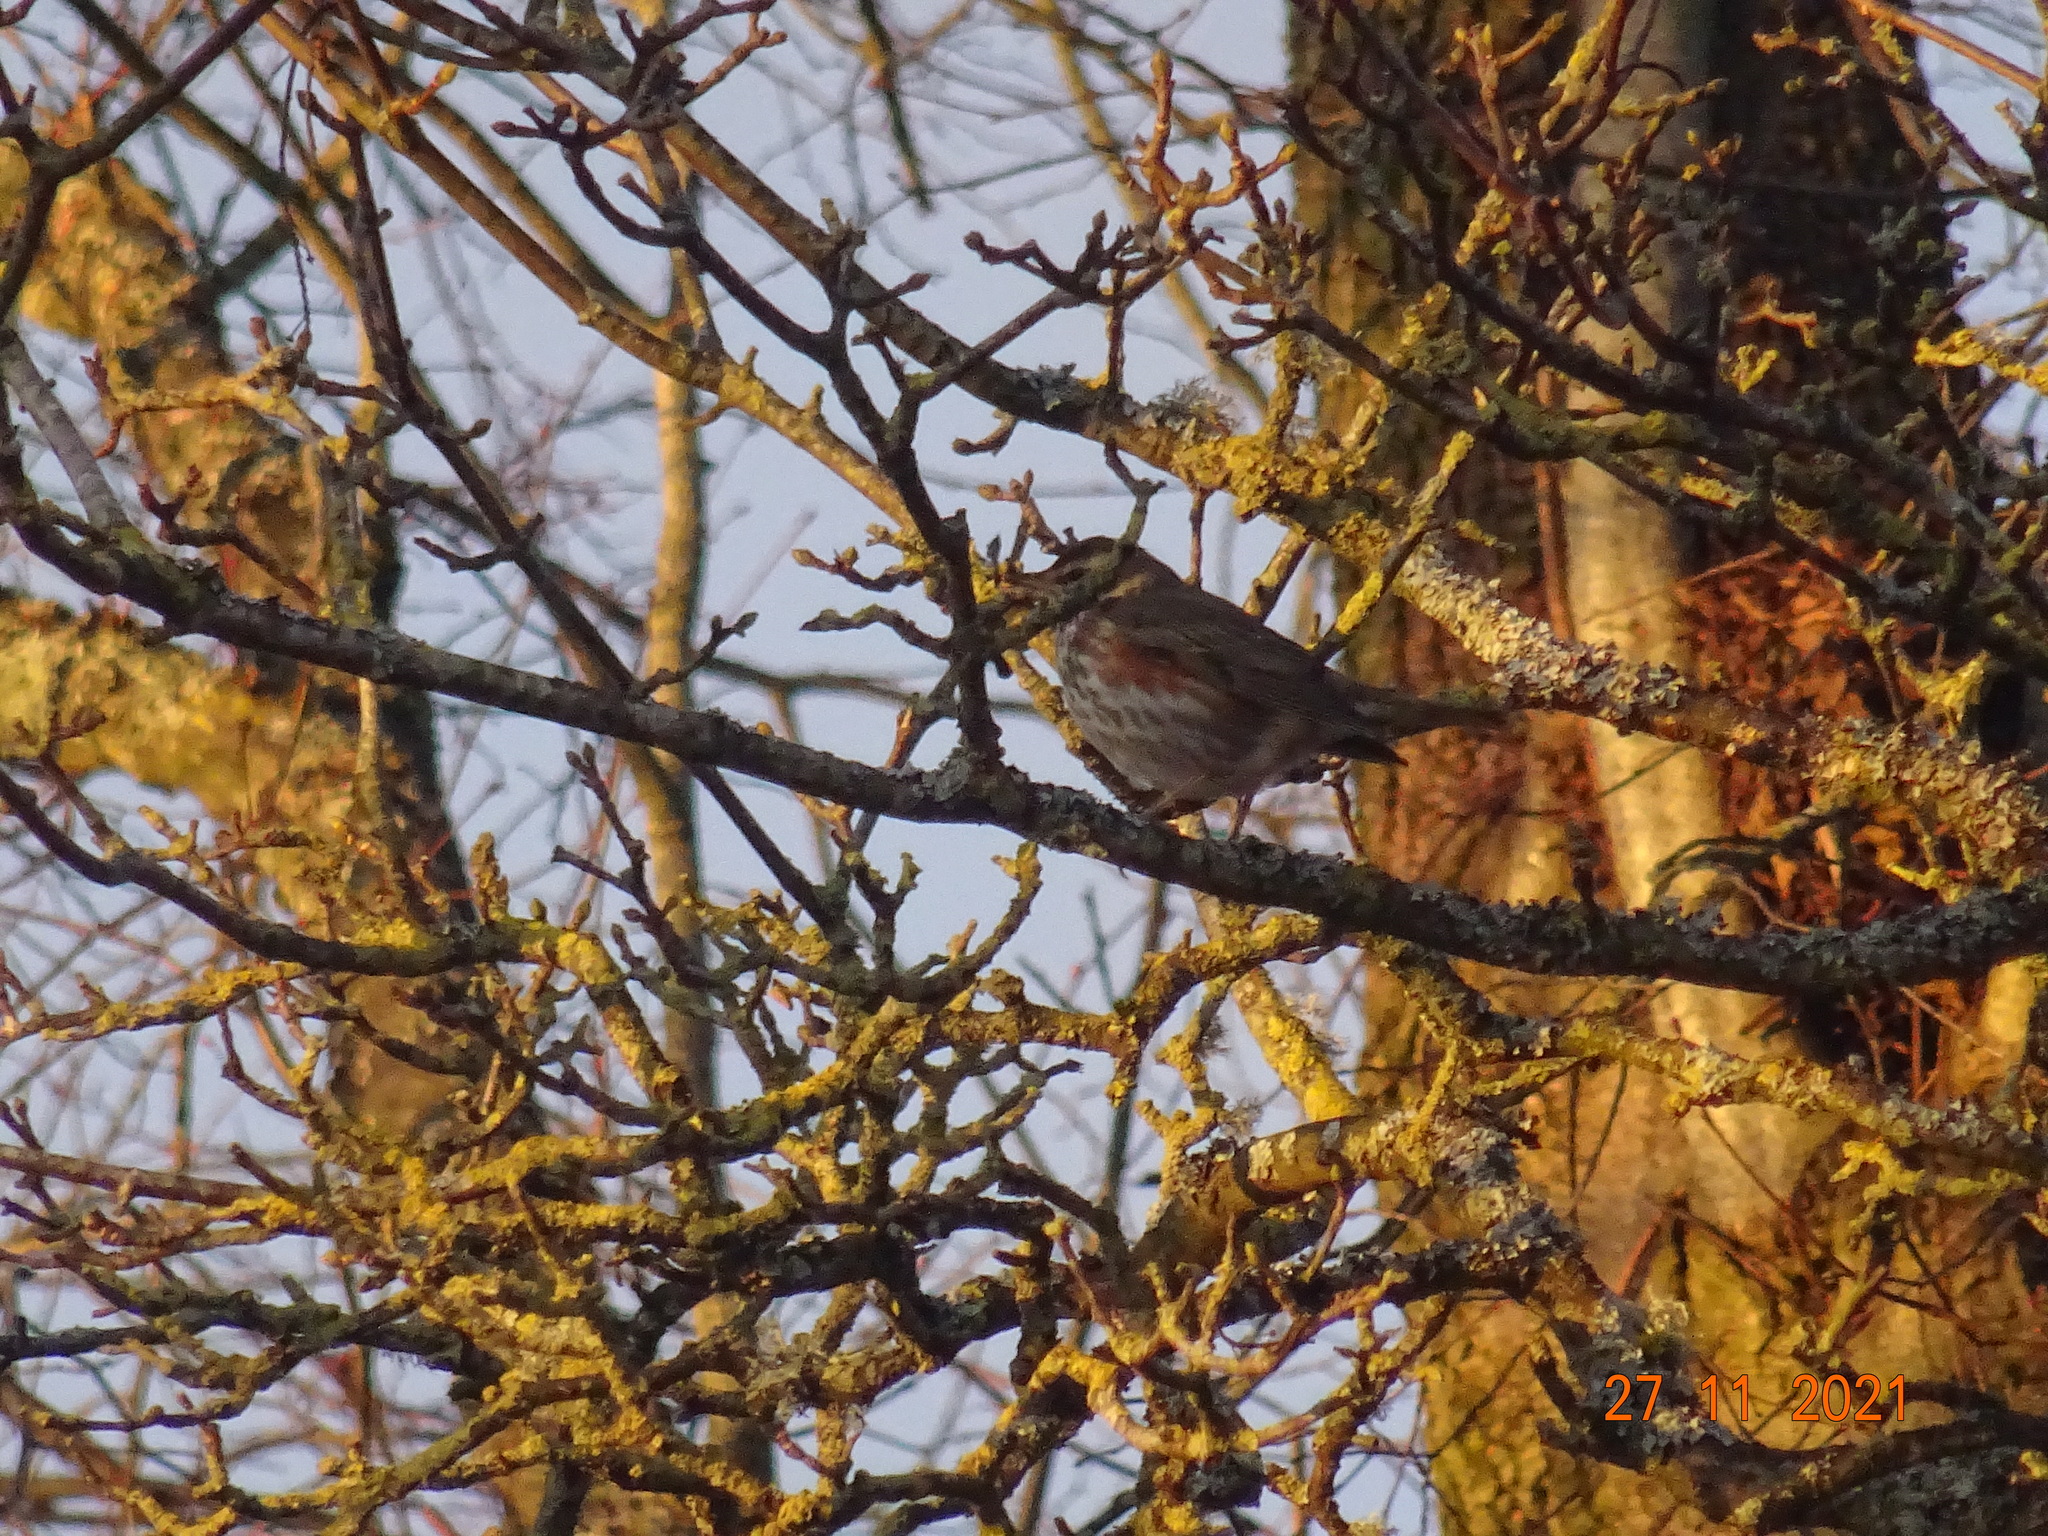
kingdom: Animalia
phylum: Chordata
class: Aves
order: Passeriformes
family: Turdidae
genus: Turdus
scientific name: Turdus iliacus
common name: Redwing
